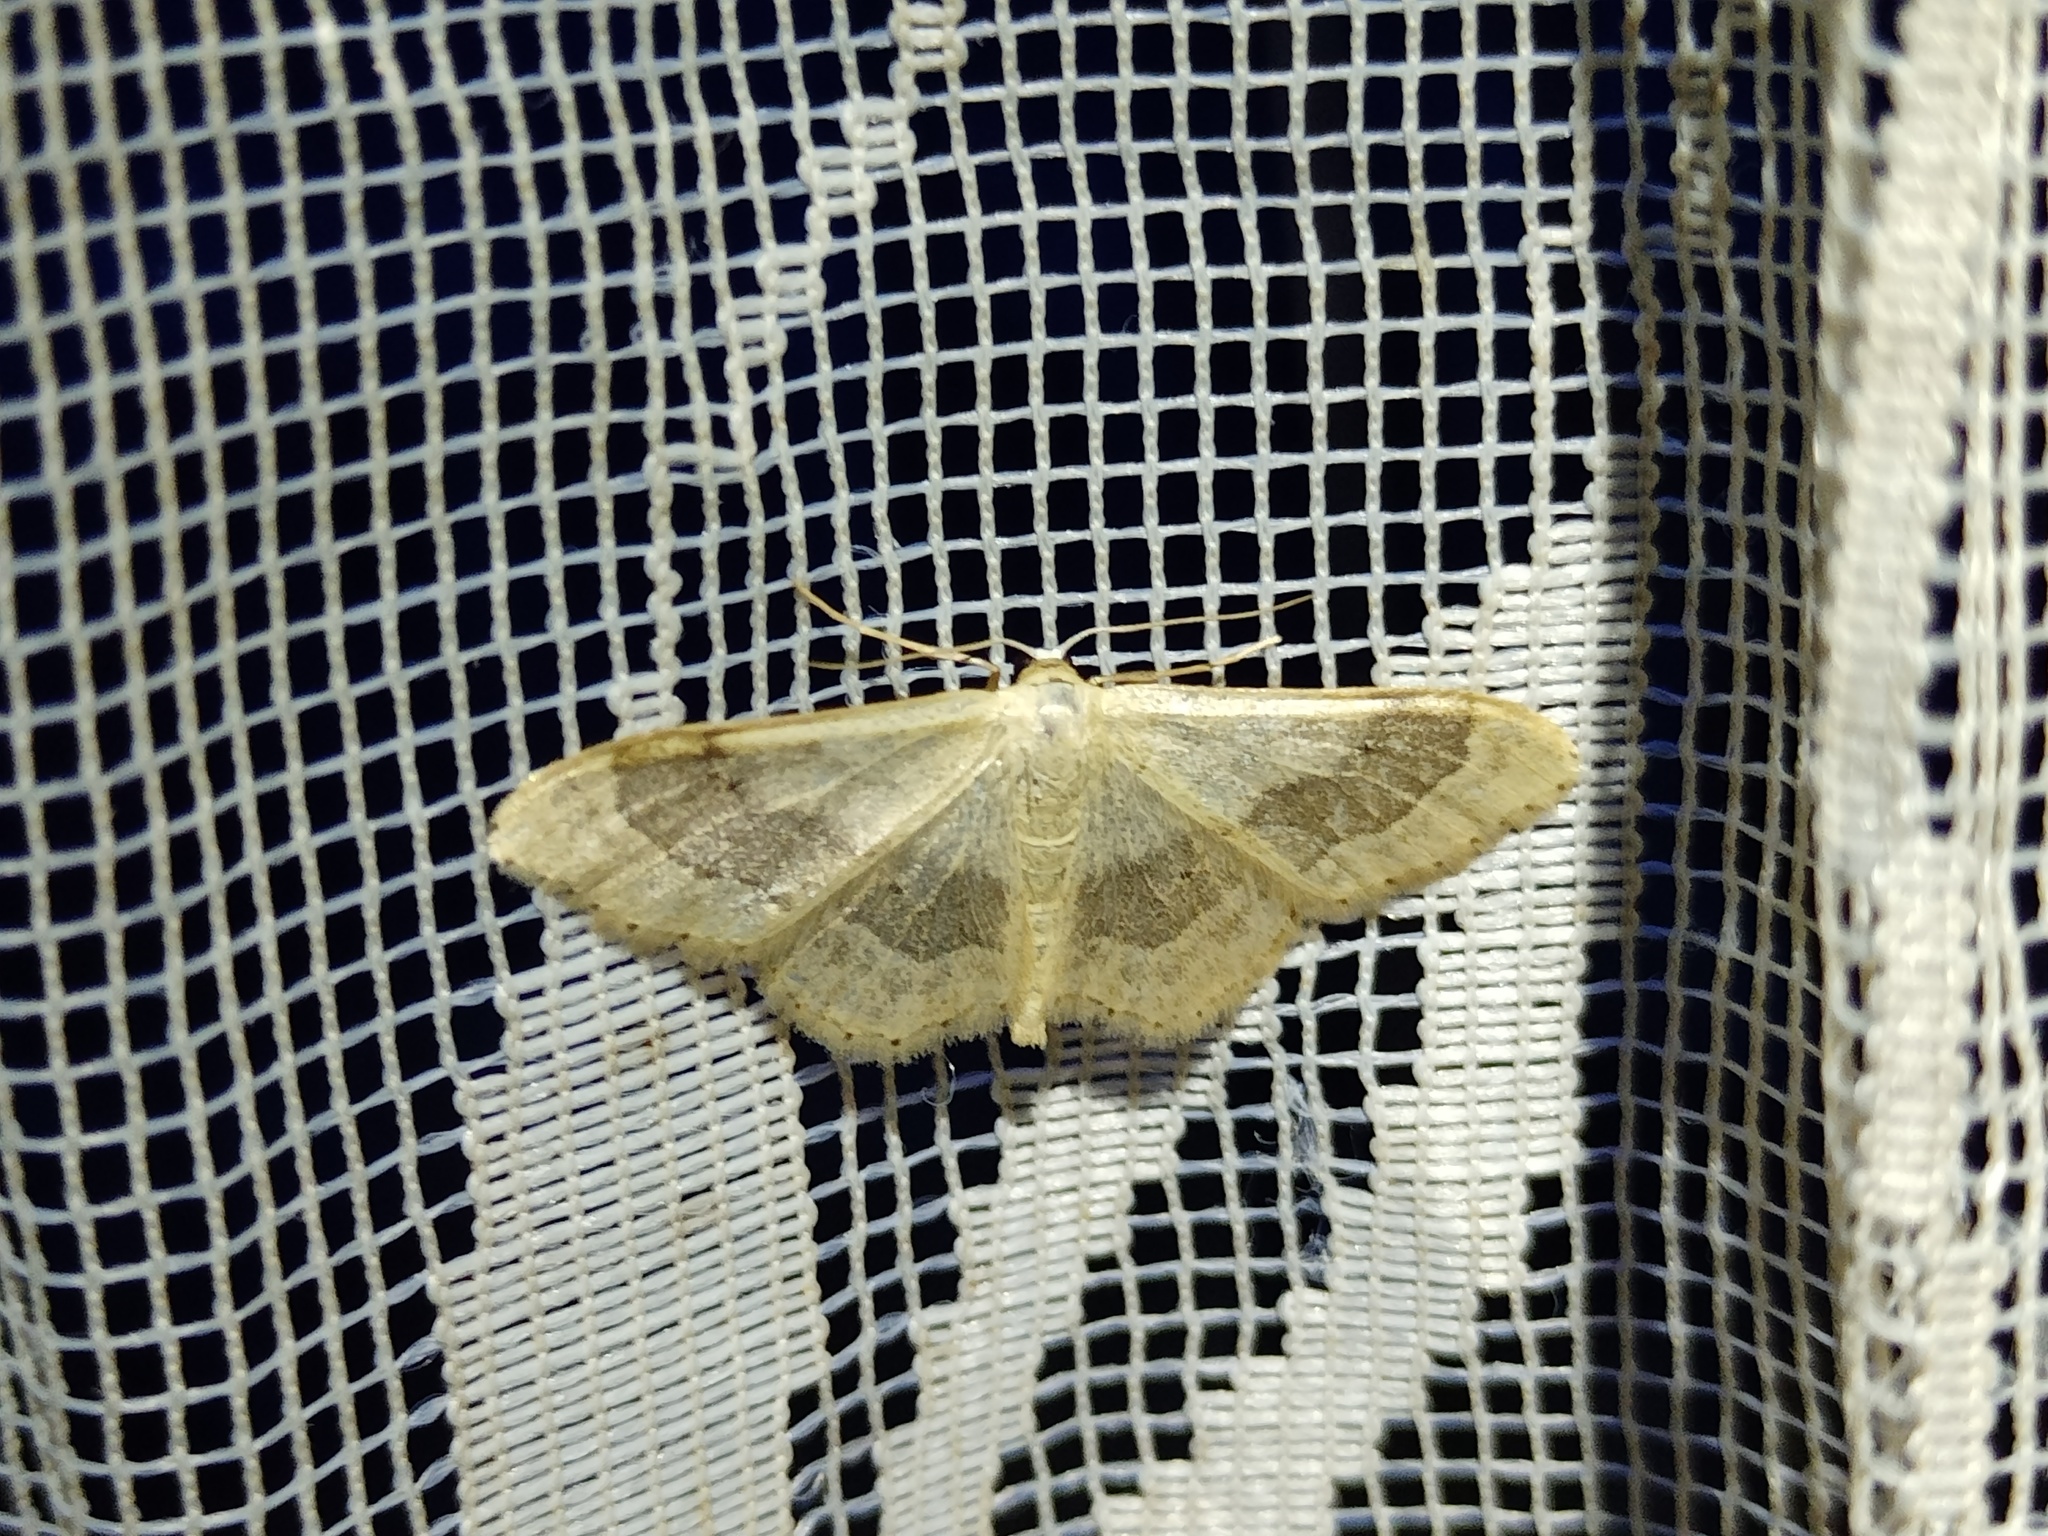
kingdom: Animalia
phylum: Arthropoda
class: Insecta
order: Lepidoptera
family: Geometridae
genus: Idaea
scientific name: Idaea aversata
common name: Riband wave
